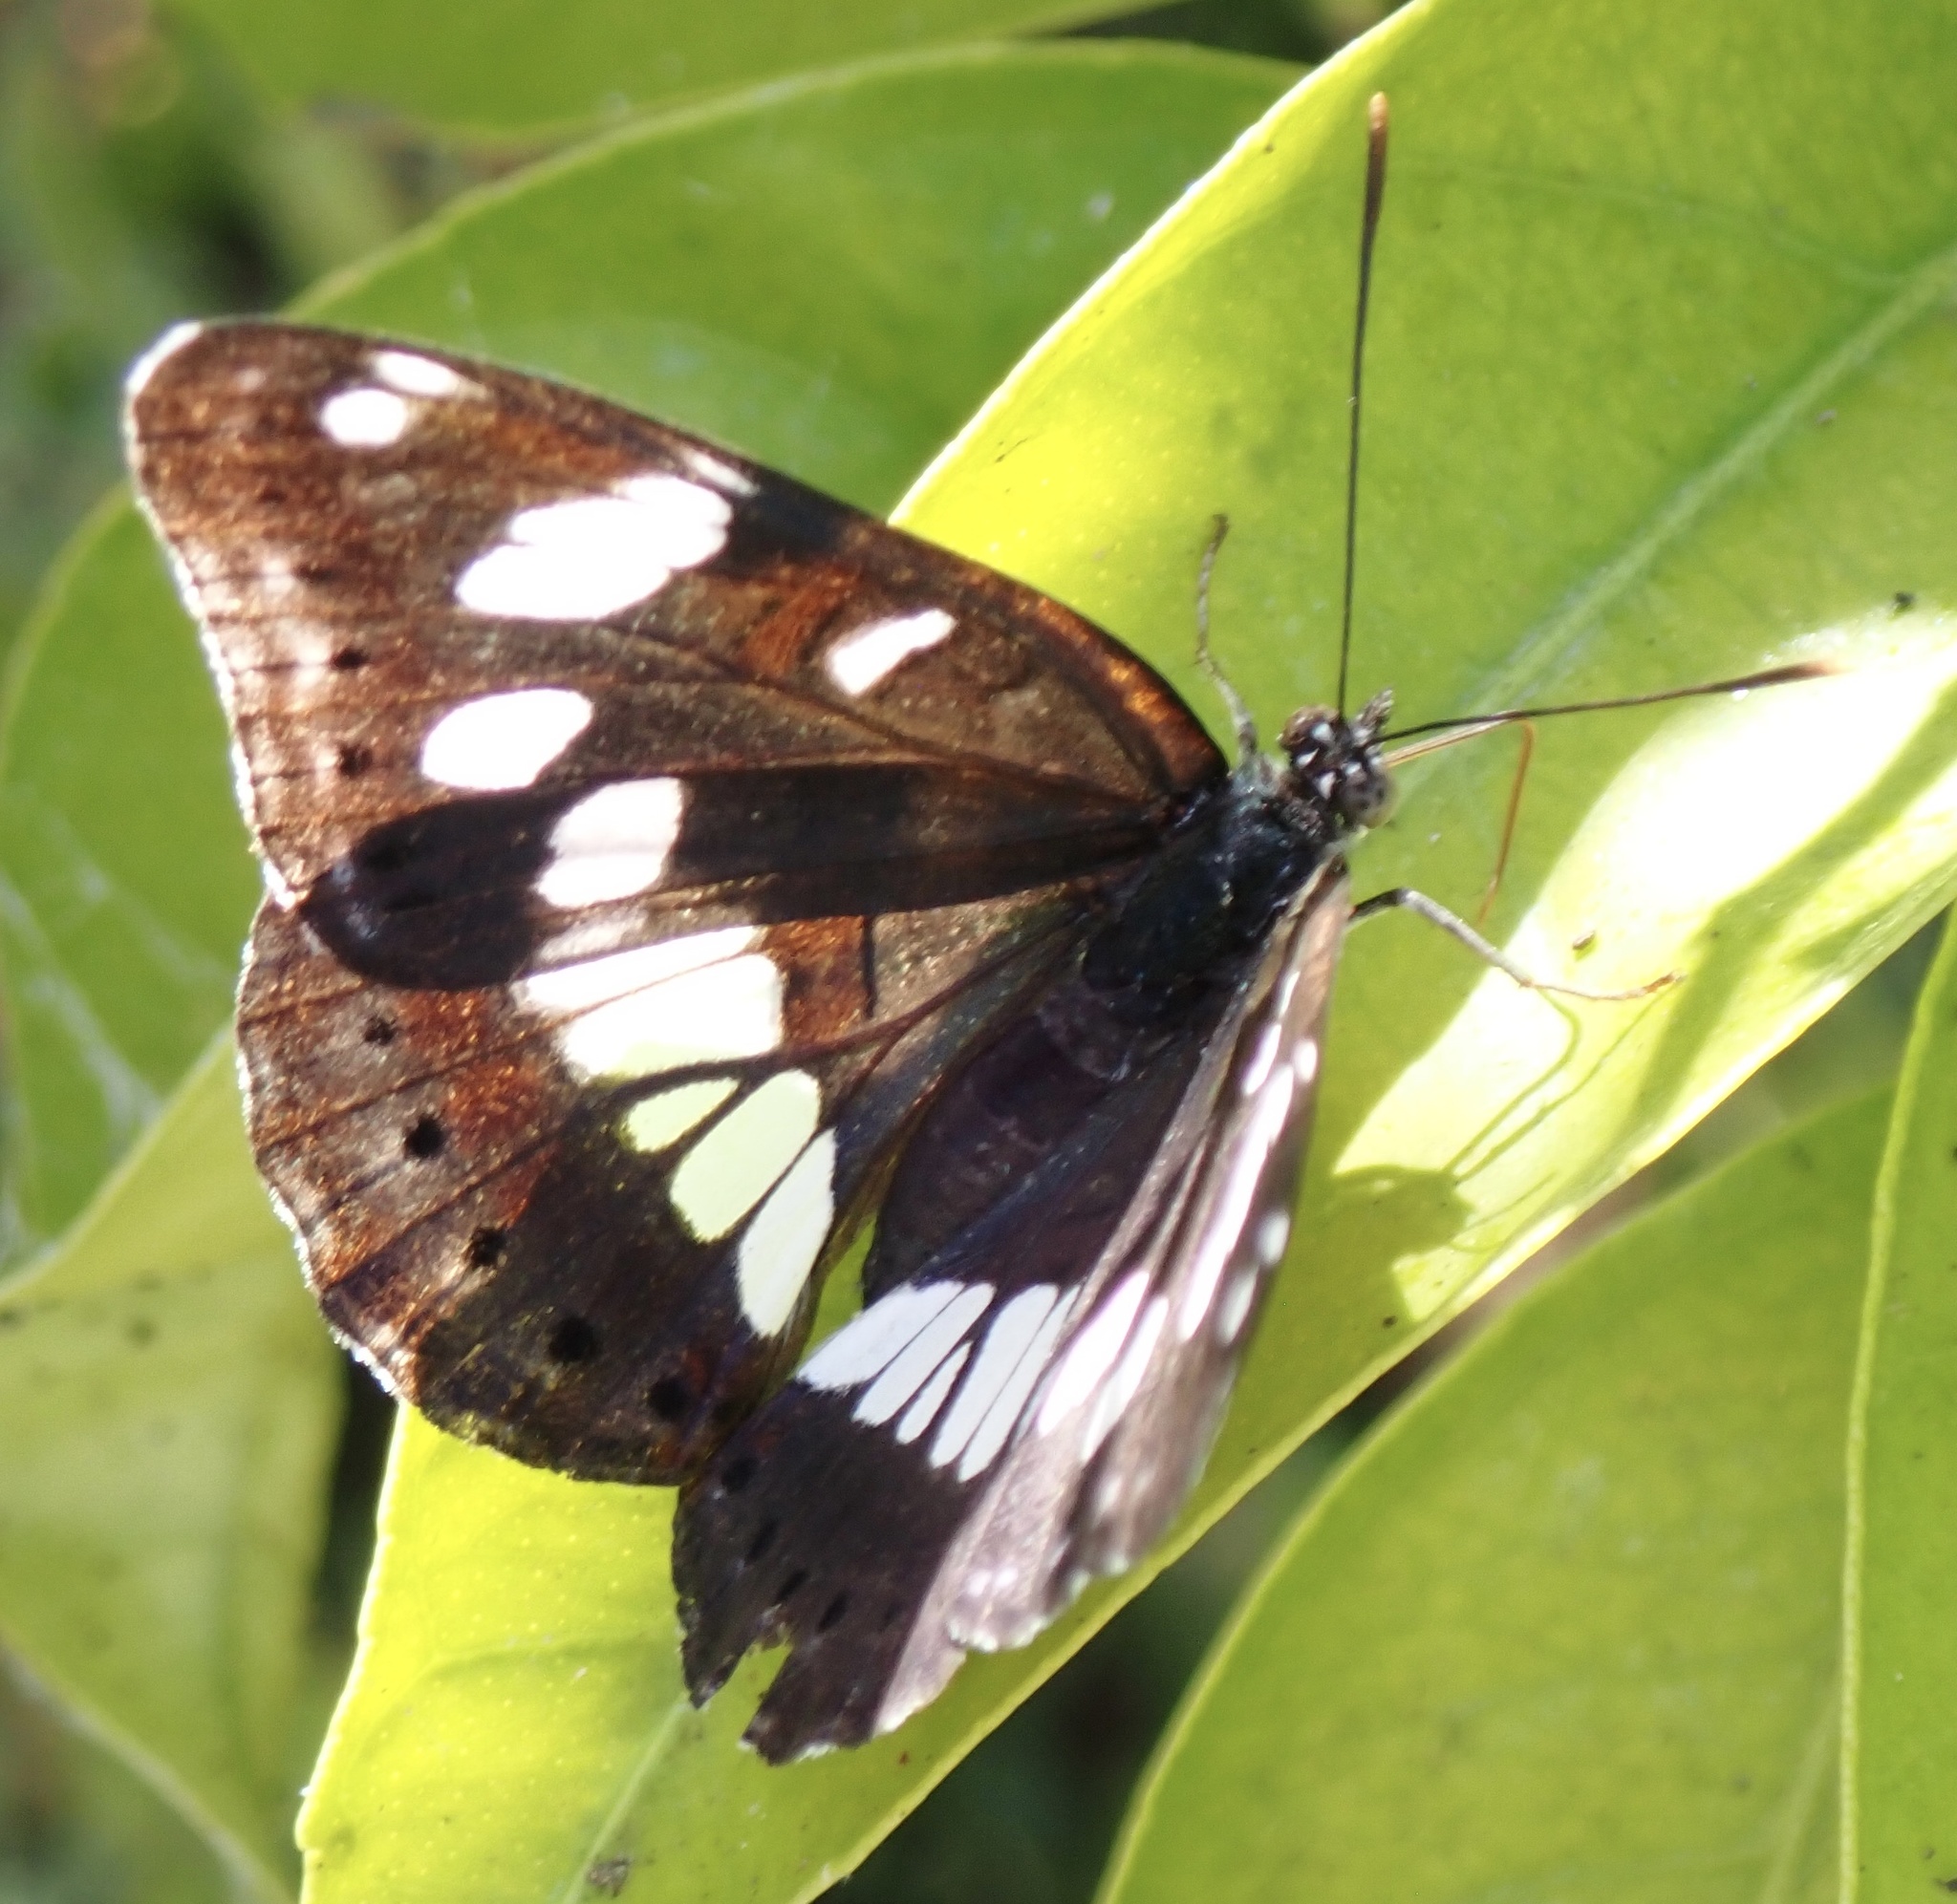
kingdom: Animalia
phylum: Arthropoda
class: Insecta
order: Lepidoptera
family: Nymphalidae
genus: Limenitis
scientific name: Limenitis reducta
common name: Southern white admiral
